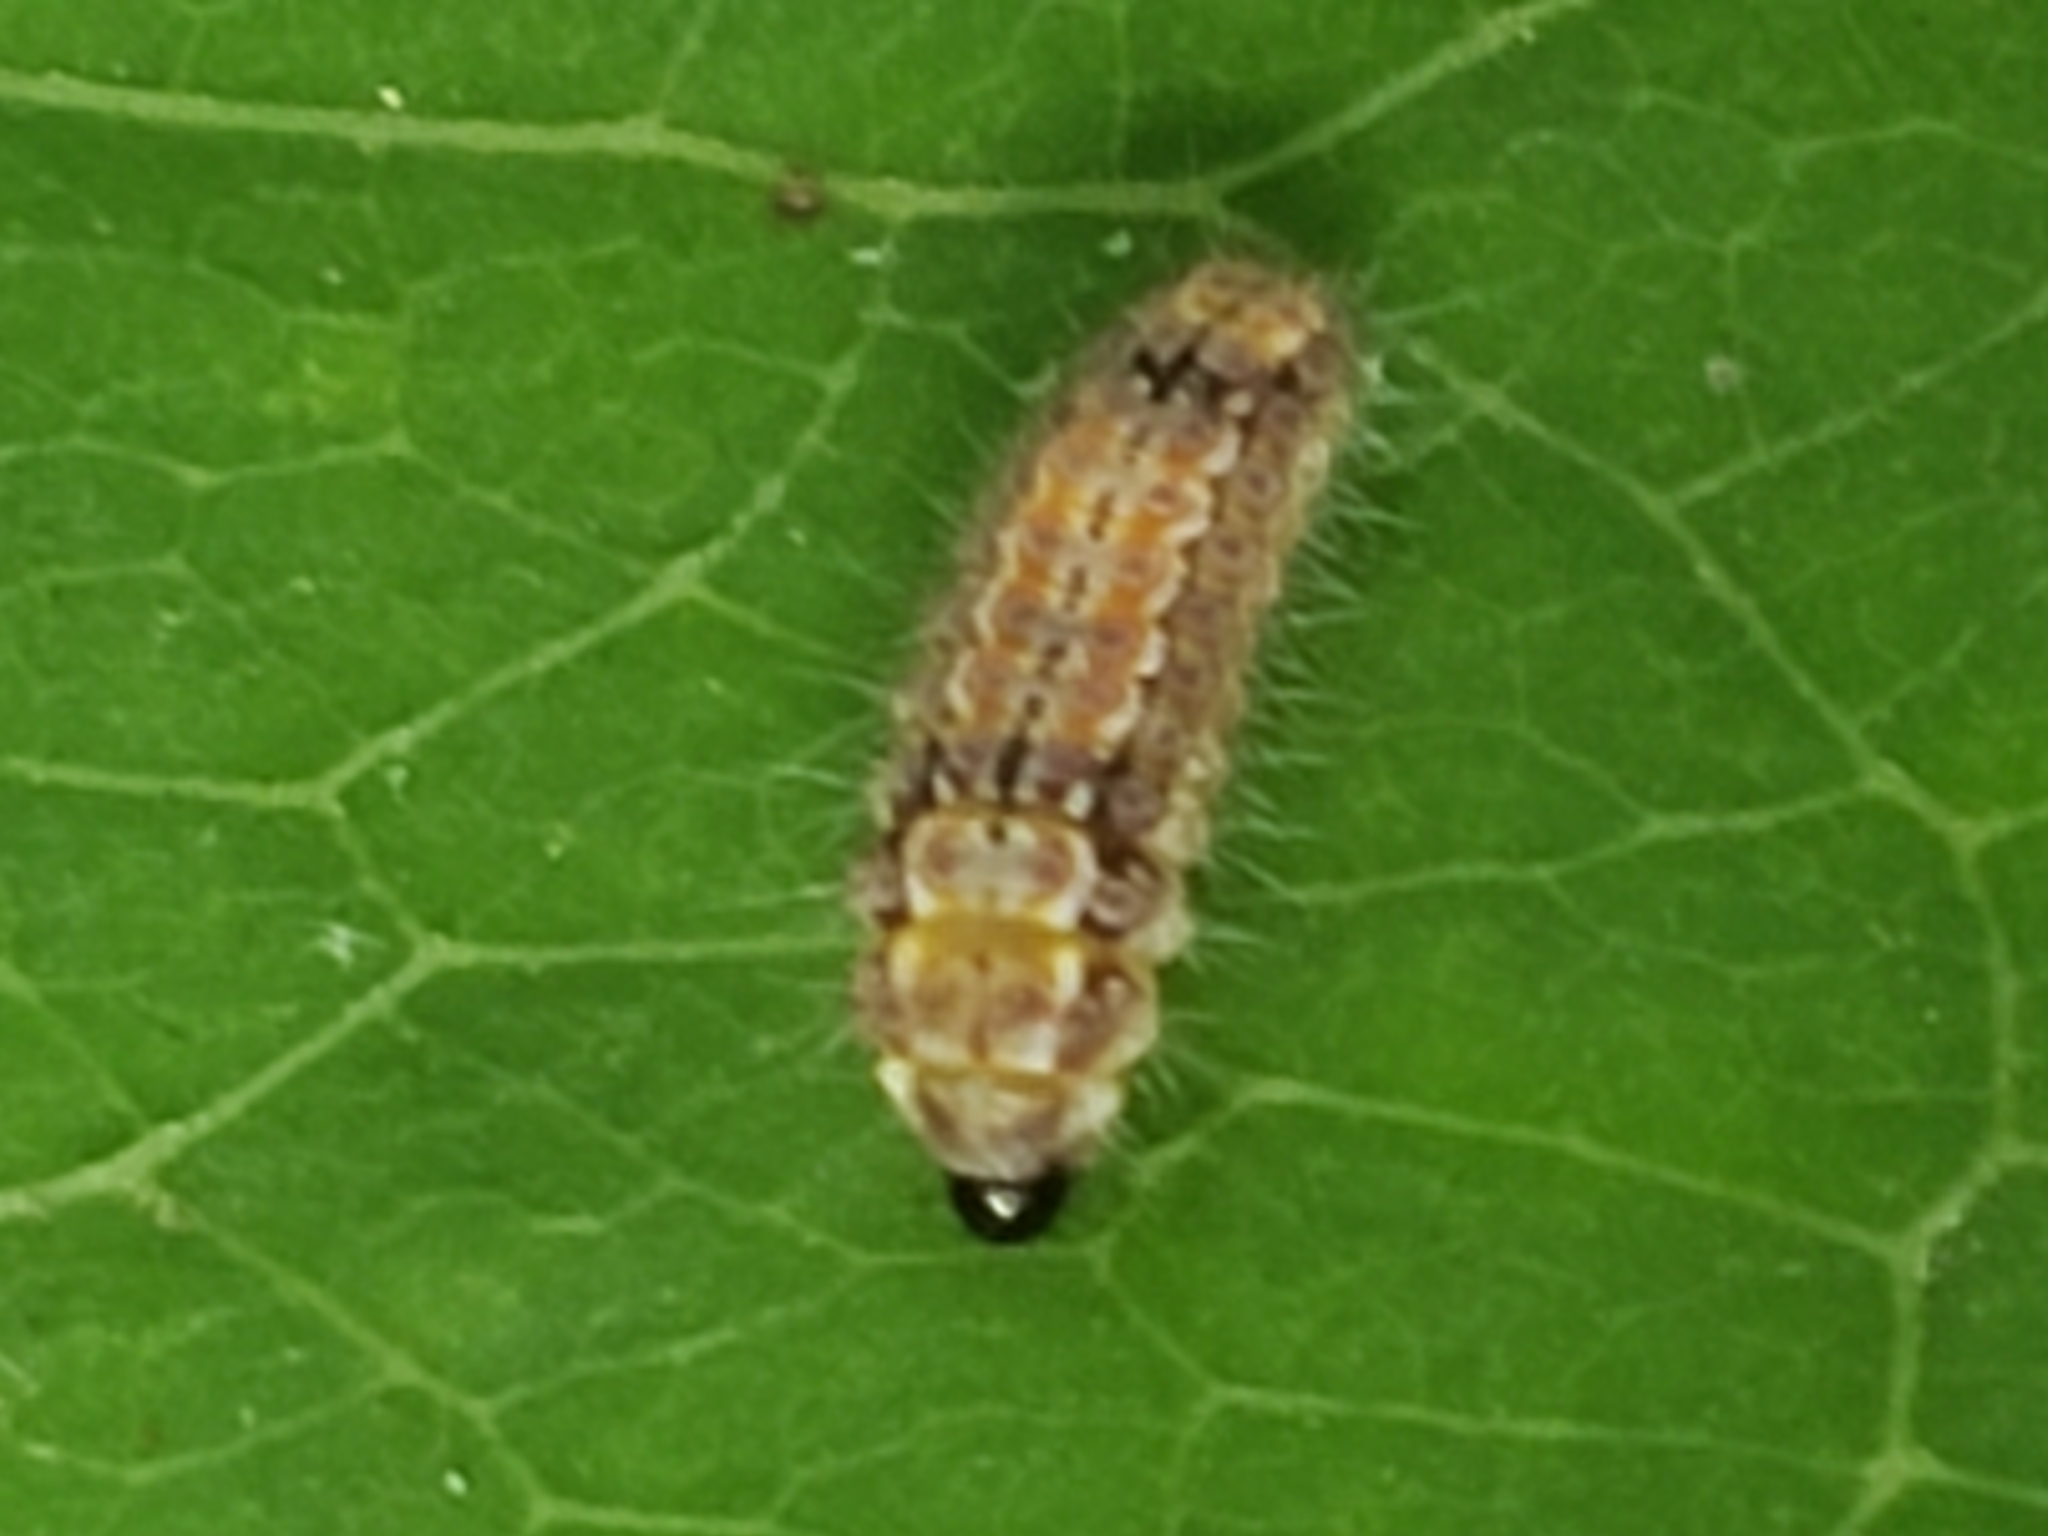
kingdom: Animalia
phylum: Arthropoda
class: Insecta
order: Lepidoptera
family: Zygaenidae
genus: Acoloithus
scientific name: Acoloithus falsarius
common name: Clemens' false skeletonizer
